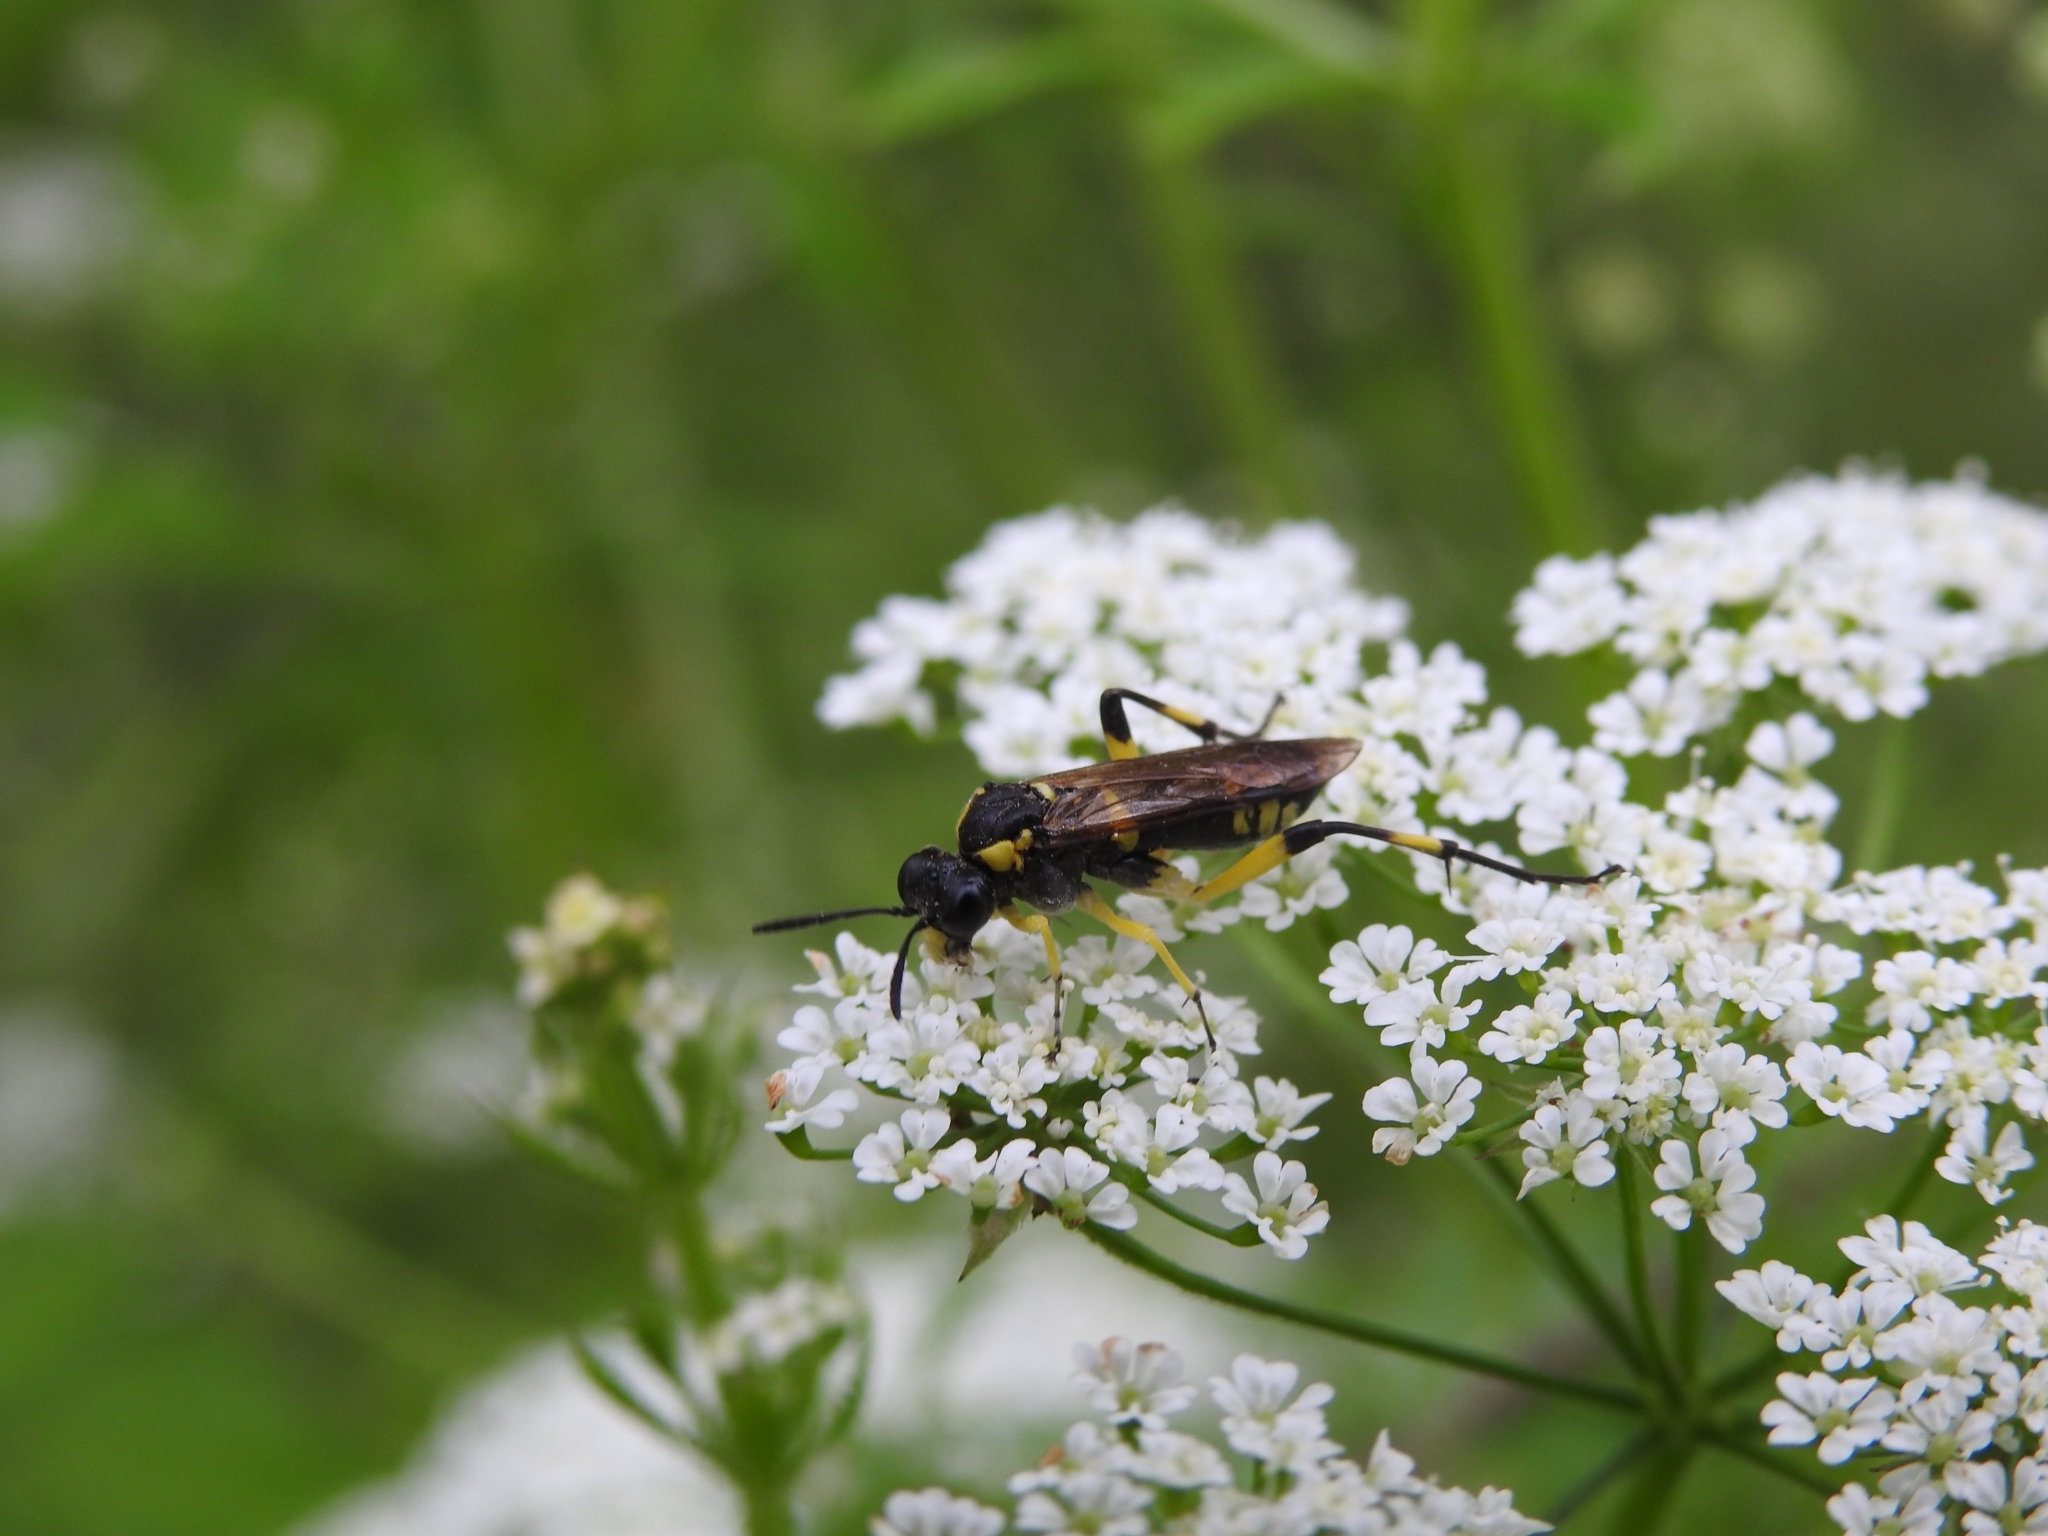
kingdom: Animalia
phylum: Arthropoda
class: Insecta
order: Hymenoptera
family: Tenthredinidae
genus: Macrophya
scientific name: Macrophya montana
